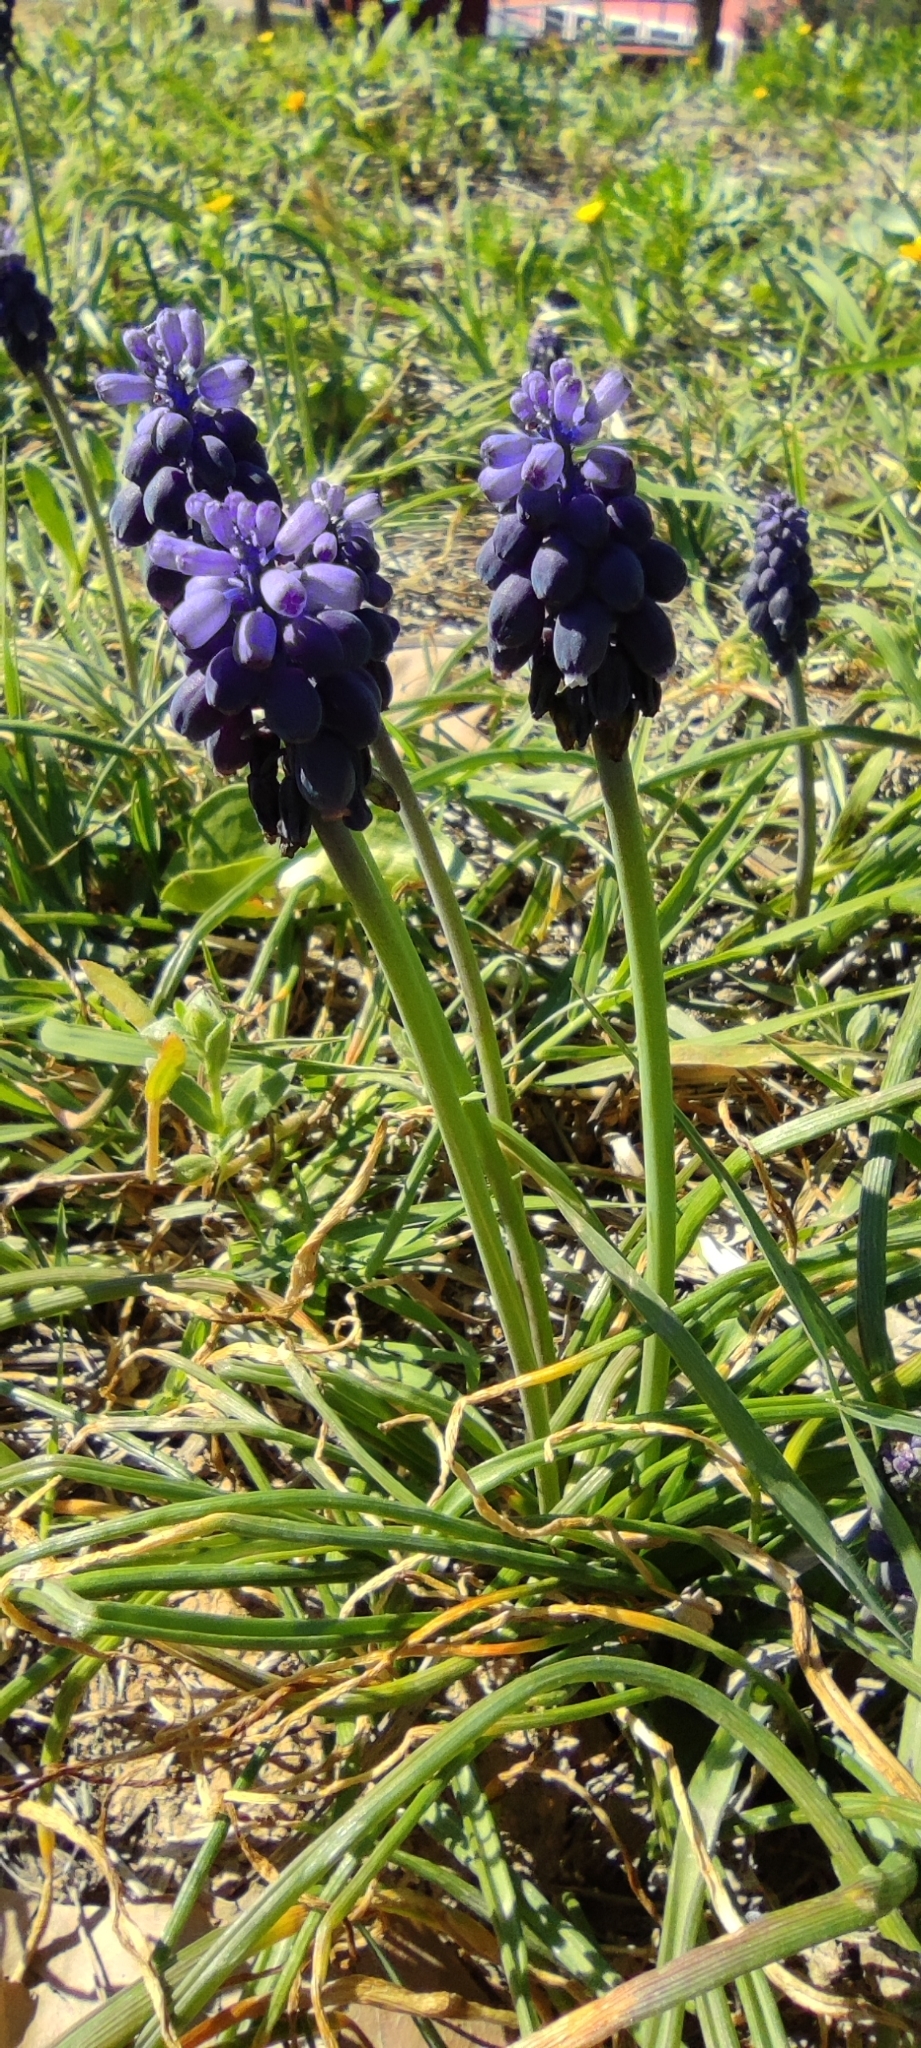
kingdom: Plantae
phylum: Tracheophyta
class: Liliopsida
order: Asparagales
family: Asparagaceae
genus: Muscari
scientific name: Muscari neglectum
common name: Grape-hyacinth
